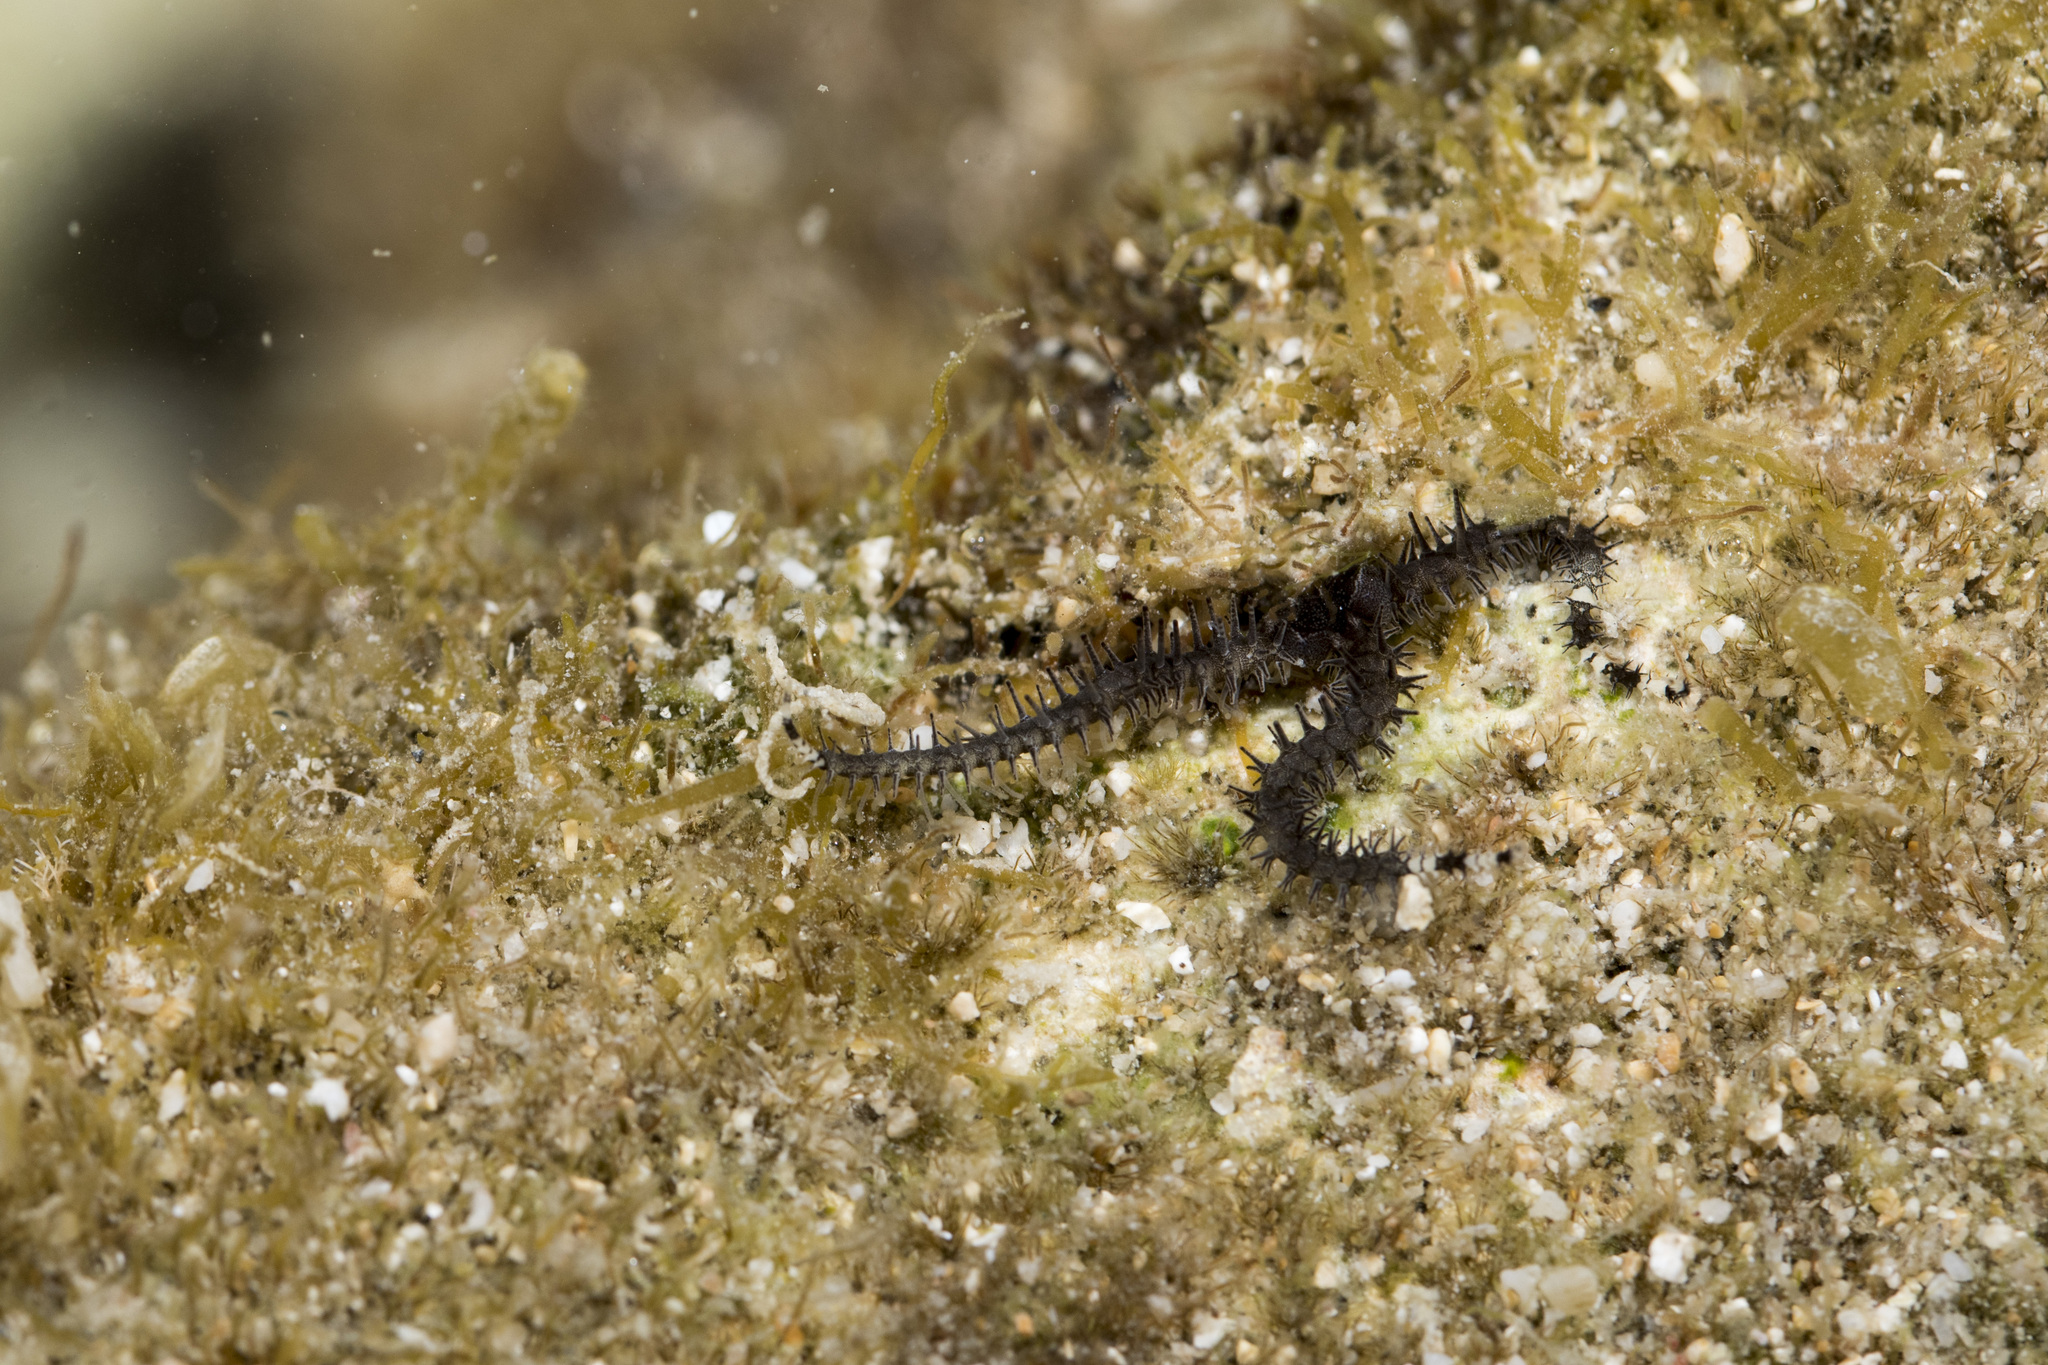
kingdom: Animalia
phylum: Echinodermata
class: Ophiuroidea
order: Ophiacanthida
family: Ophiocomidae
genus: Ophiocoma
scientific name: Ophiocoma scolopendrina
